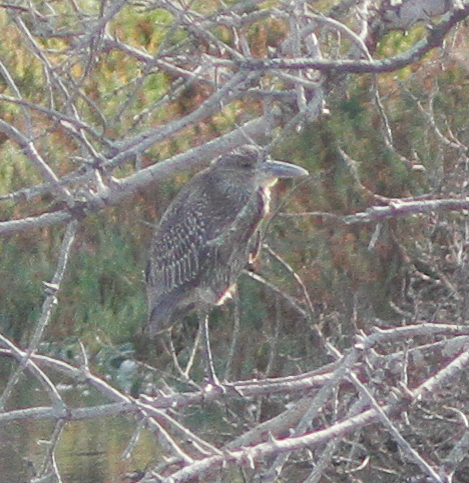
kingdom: Animalia
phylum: Chordata
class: Aves
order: Pelecaniformes
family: Ardeidae
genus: Nyctanassa
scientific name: Nyctanassa violacea
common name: Yellow-crowned night heron
